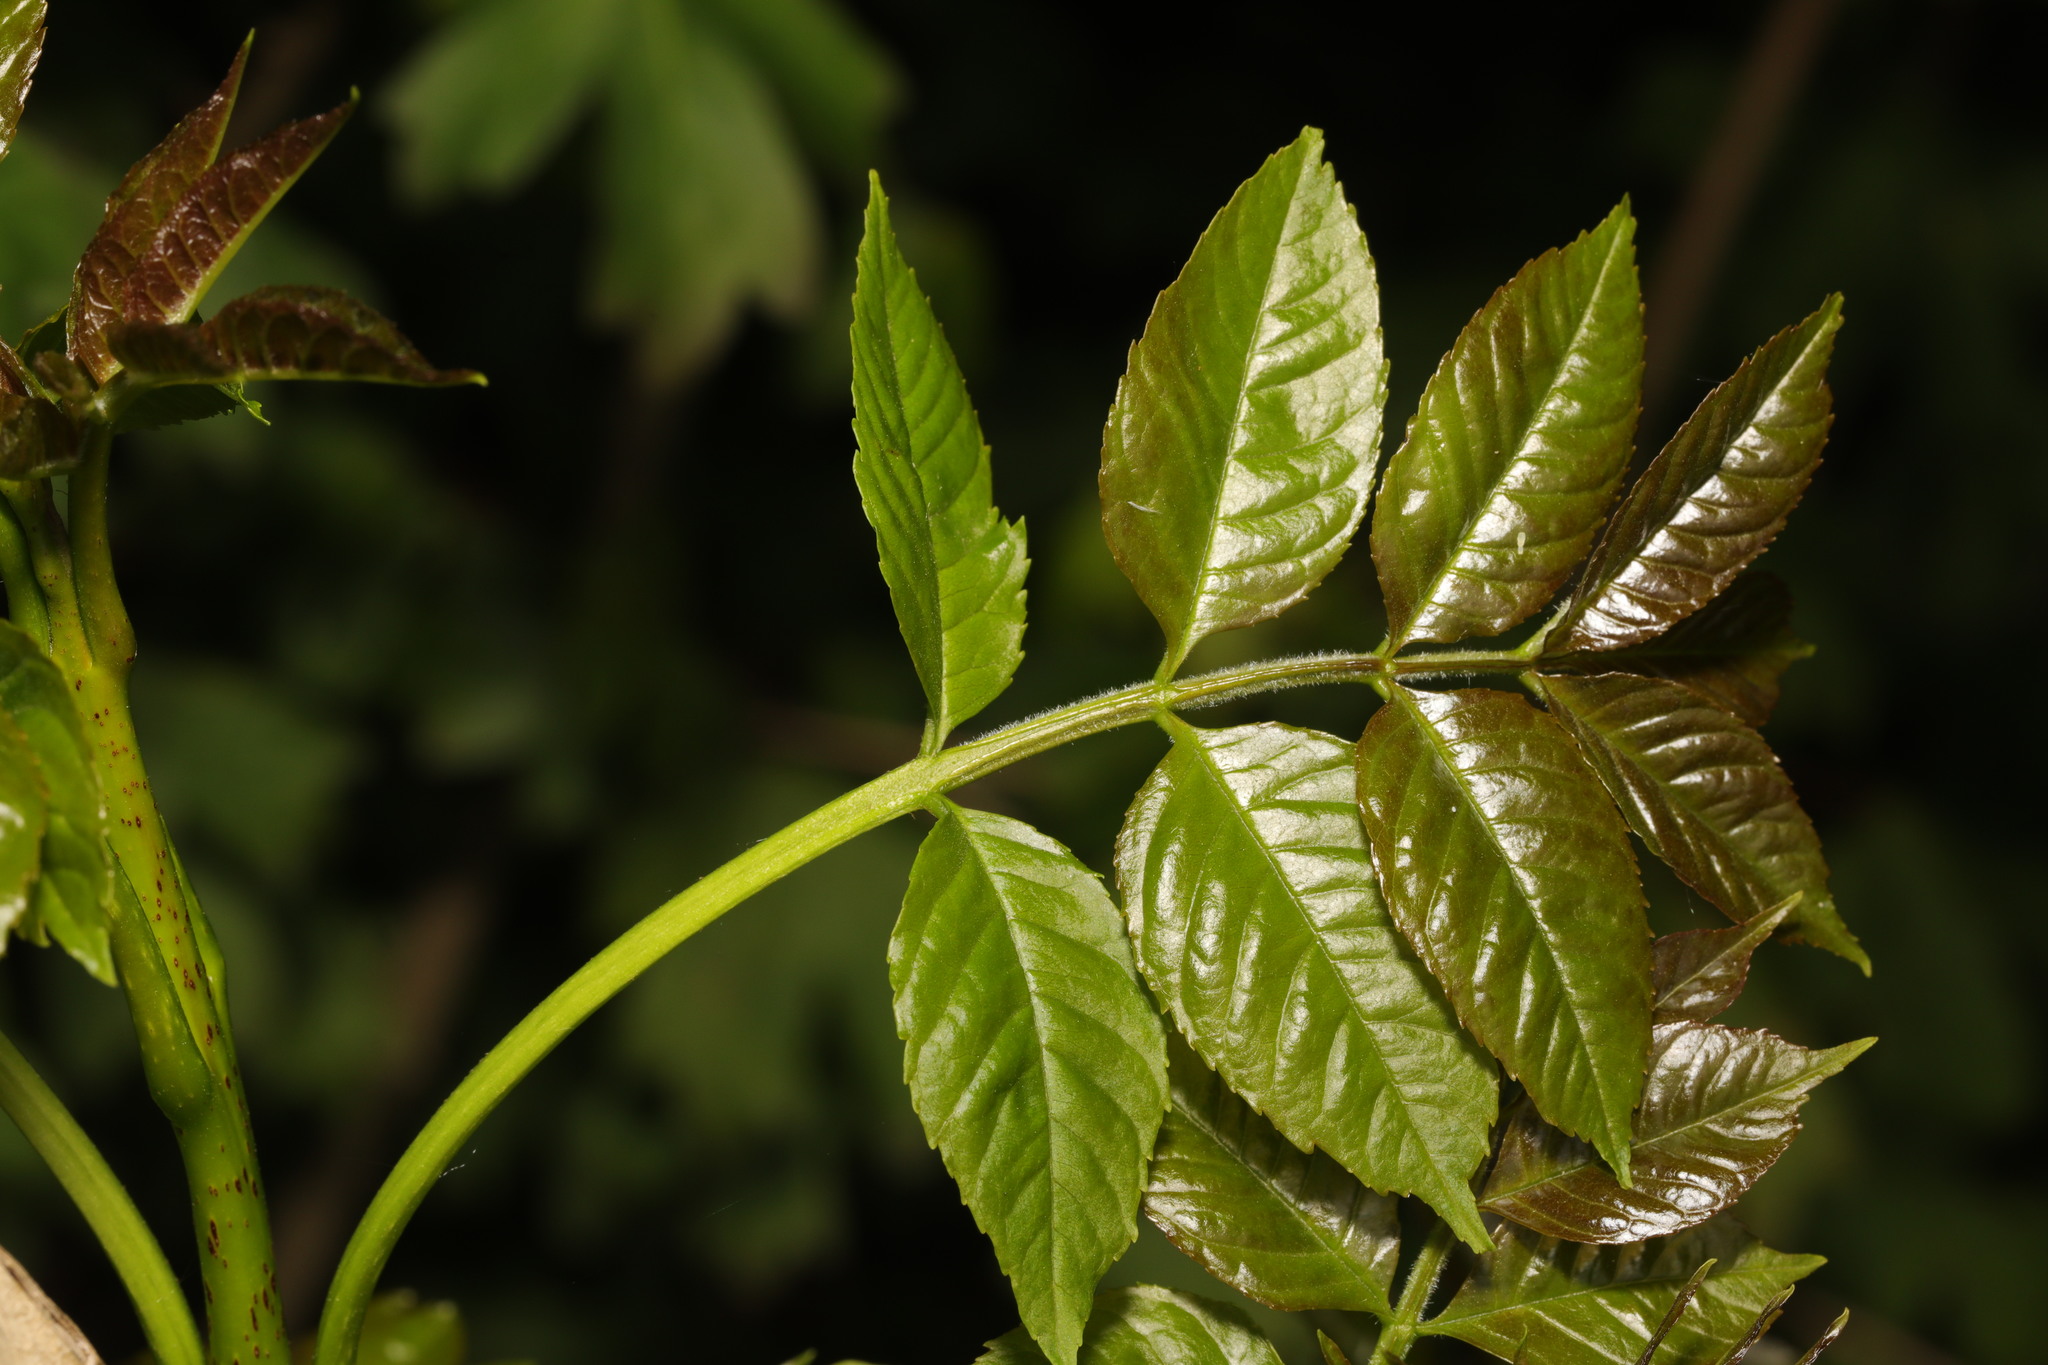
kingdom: Plantae
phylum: Tracheophyta
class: Magnoliopsida
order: Lamiales
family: Oleaceae
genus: Fraxinus
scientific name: Fraxinus excelsior
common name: European ash
